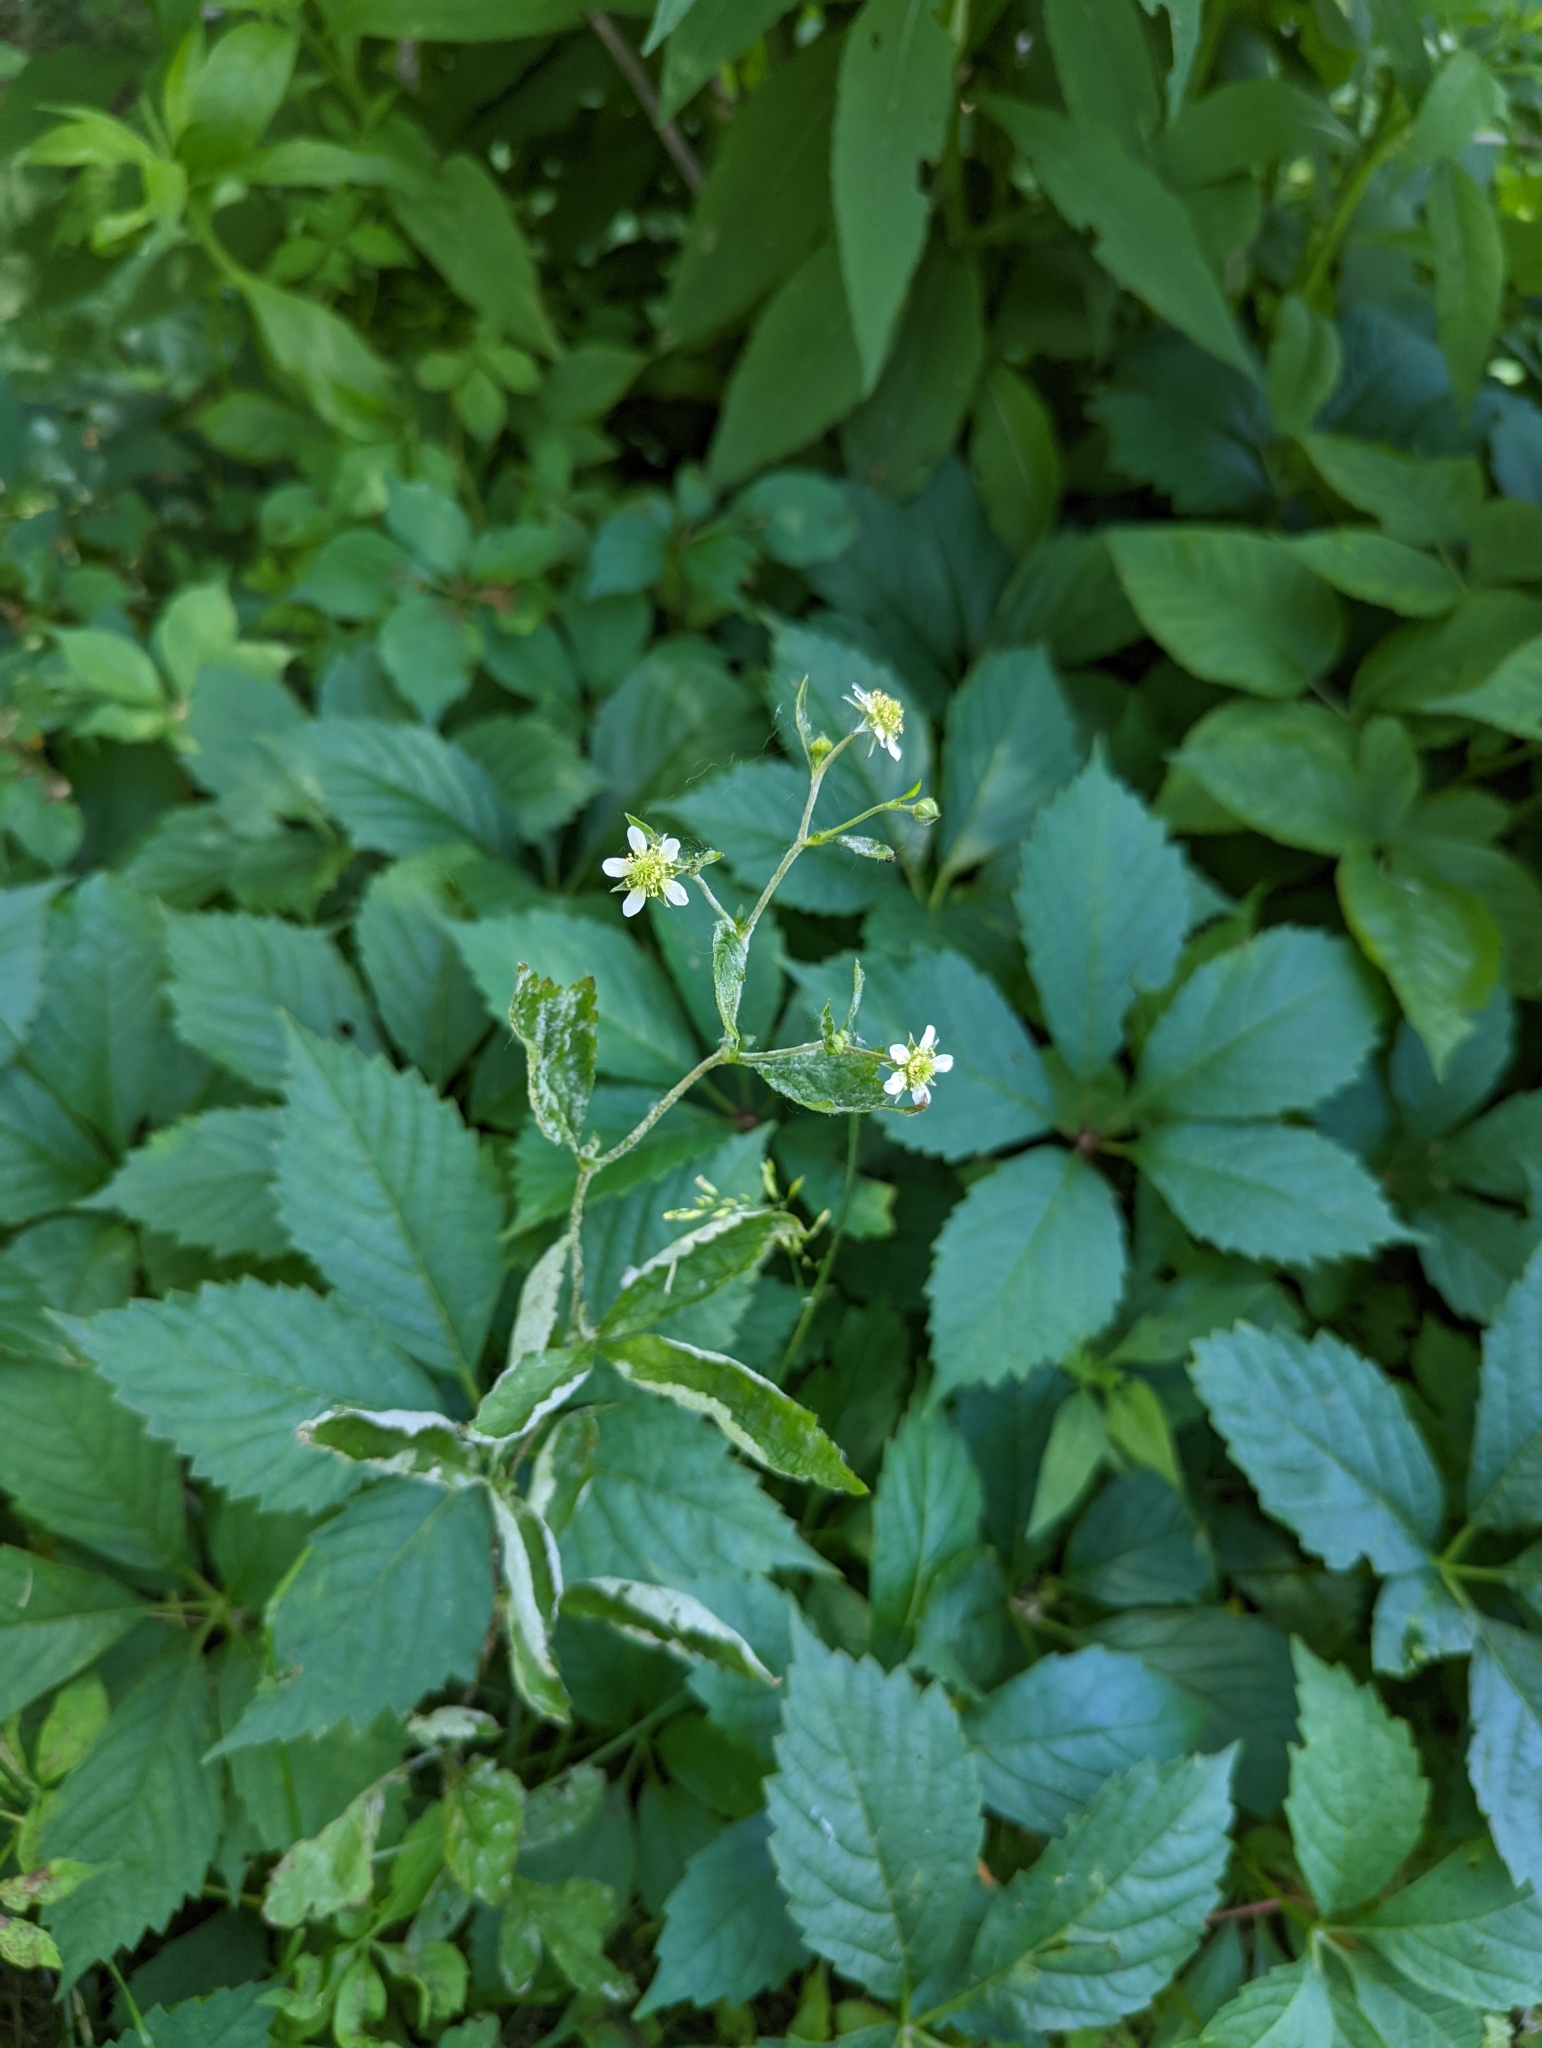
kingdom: Plantae
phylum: Tracheophyta
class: Magnoliopsida
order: Rosales
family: Rosaceae
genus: Geum
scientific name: Geum canadense
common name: White avens
